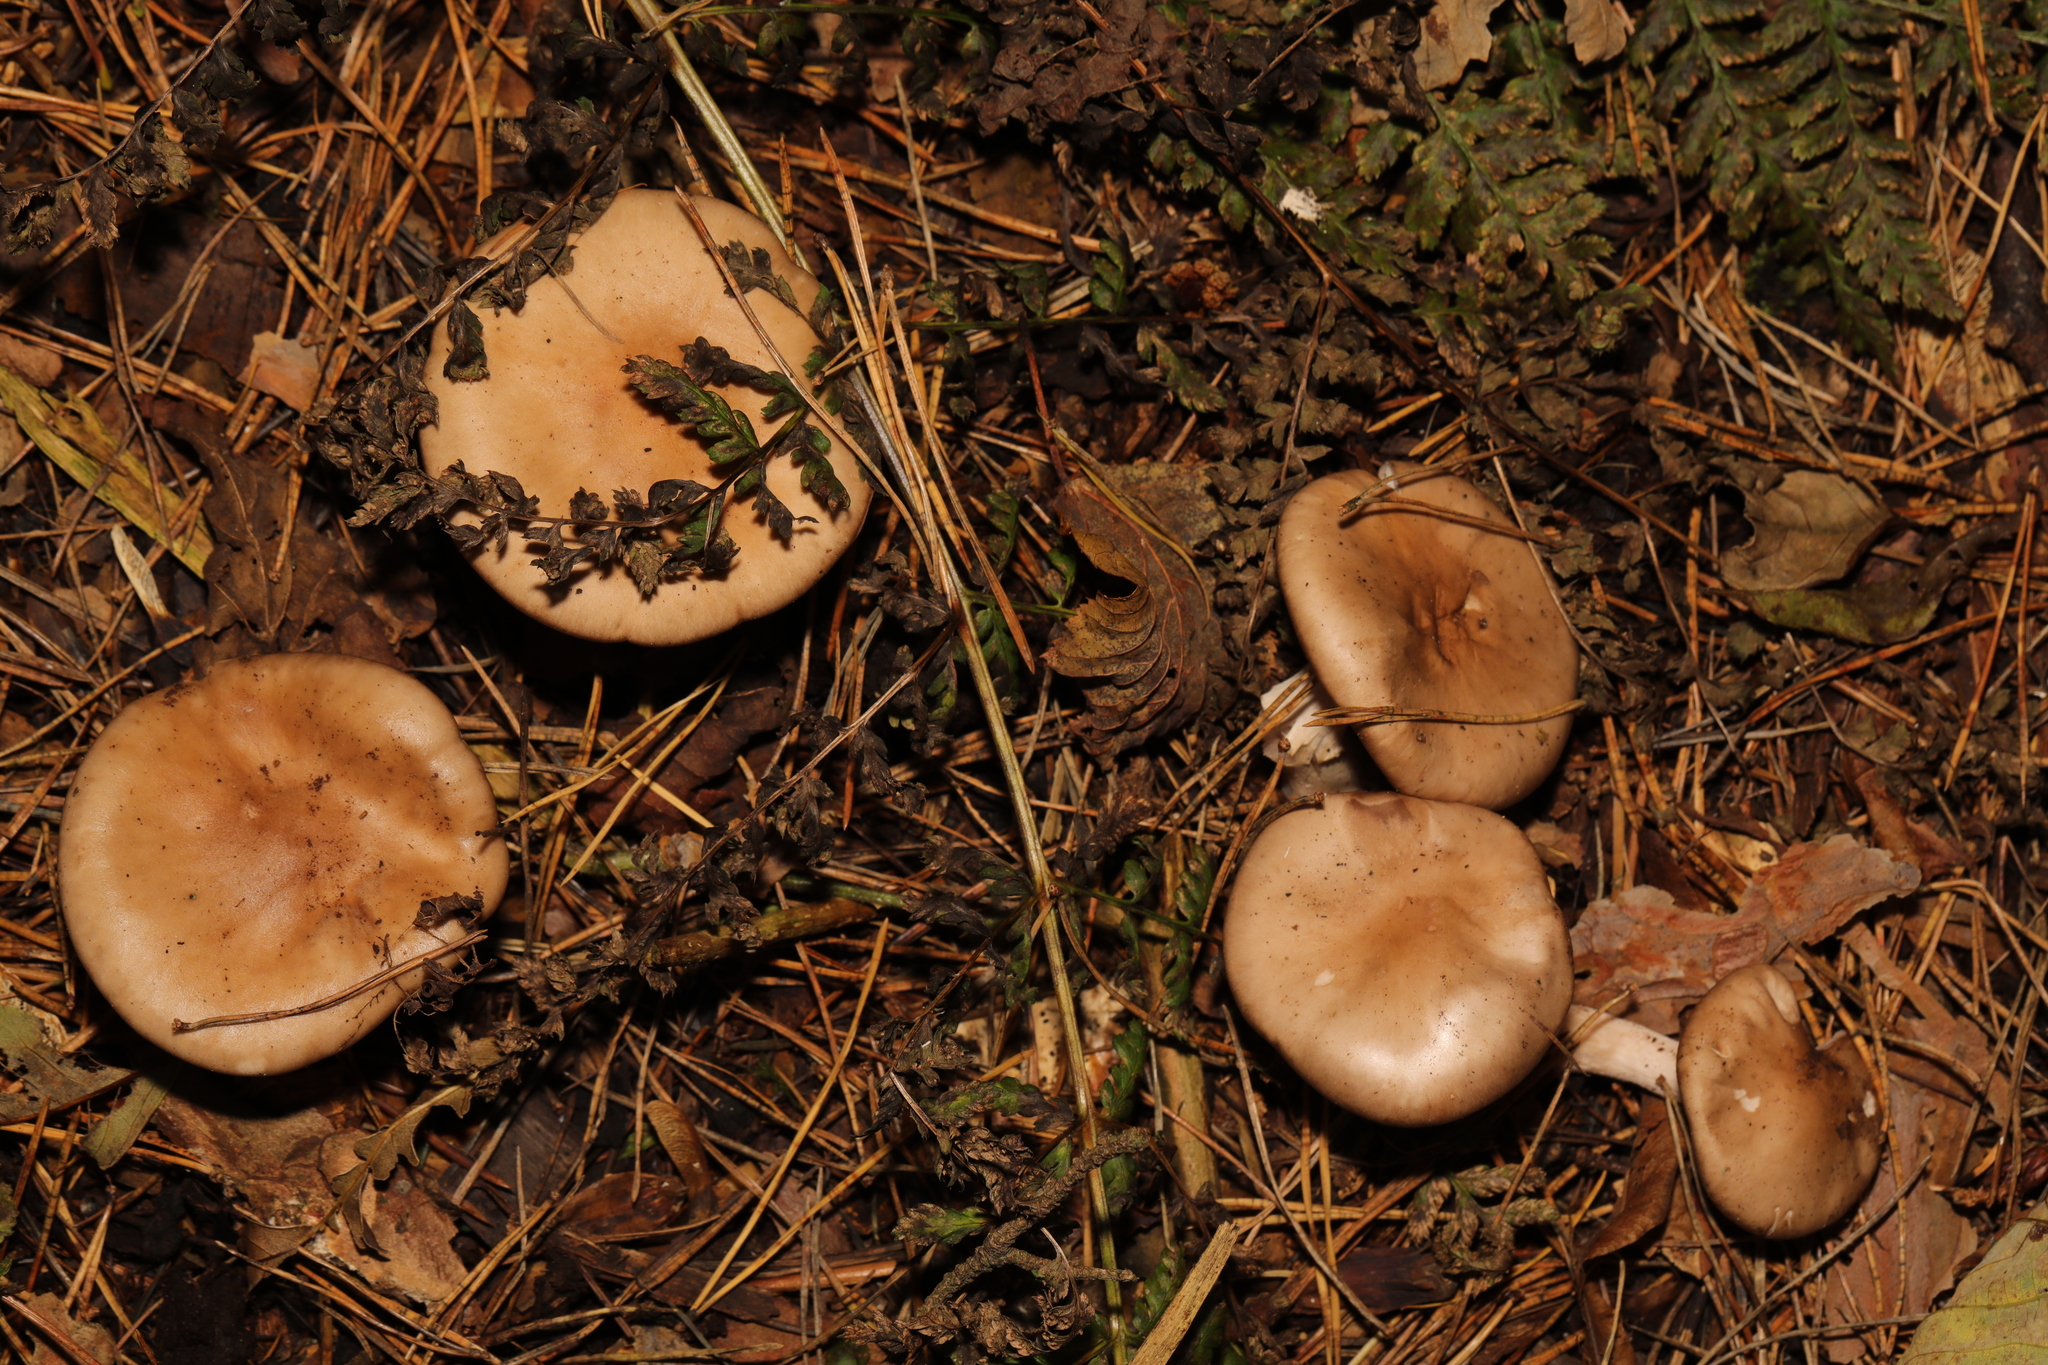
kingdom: Fungi
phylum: Basidiomycota
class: Agaricomycetes
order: Agaricales
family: Tricholomataceae
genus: Clitocybe
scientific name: Clitocybe nebularis
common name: Clouded agaric
